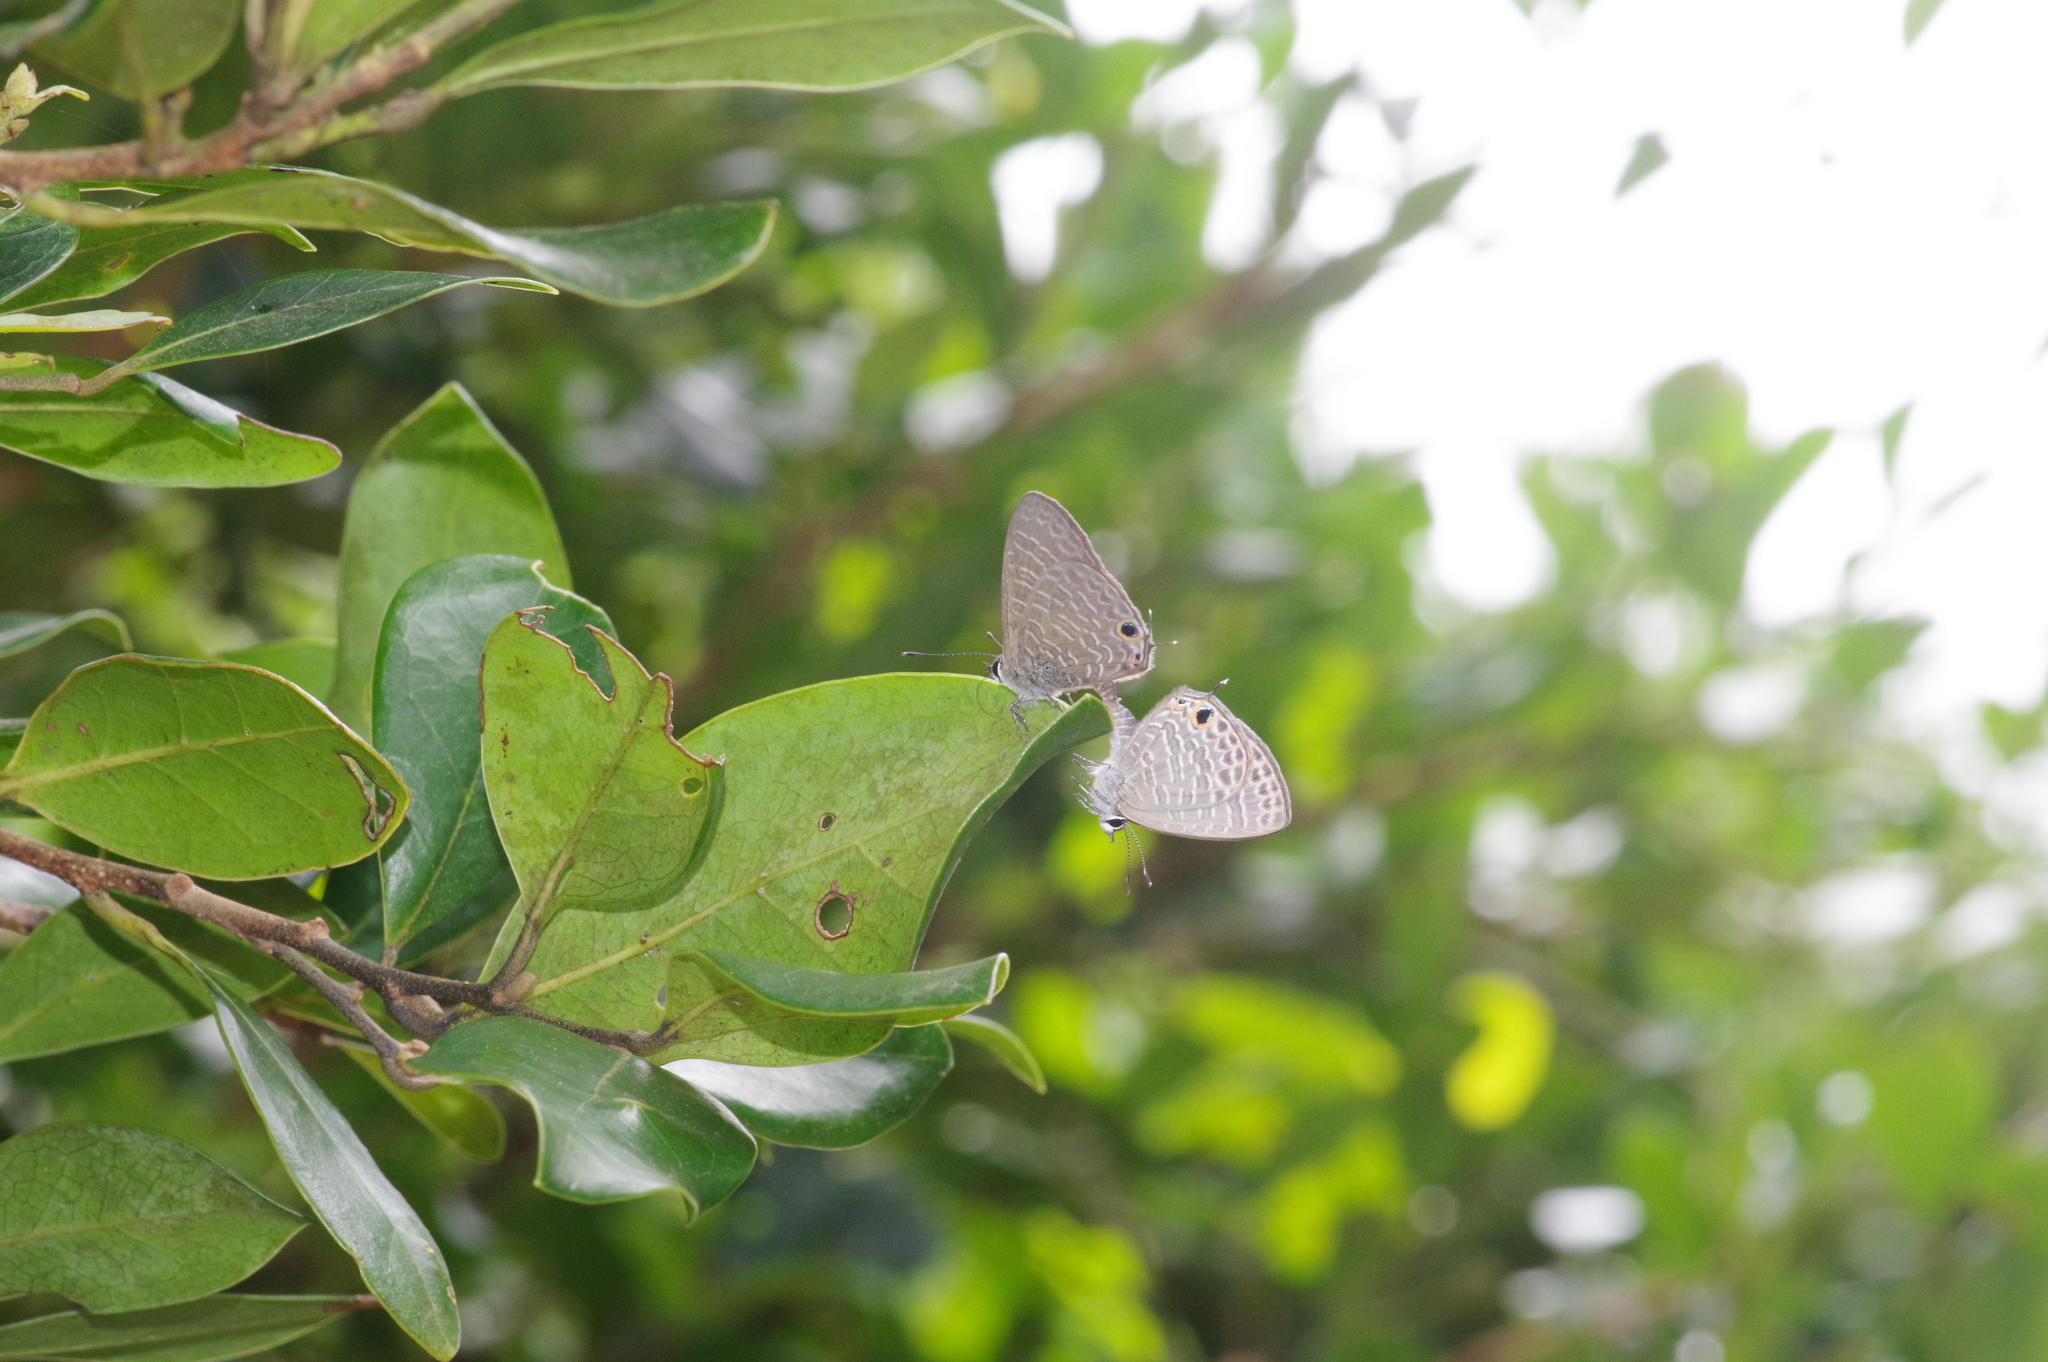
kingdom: Animalia
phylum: Arthropoda
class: Insecta
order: Lepidoptera
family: Lycaenidae
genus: Nacaduba
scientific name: Nacaduba kurava
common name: Transparent 6-line blue
